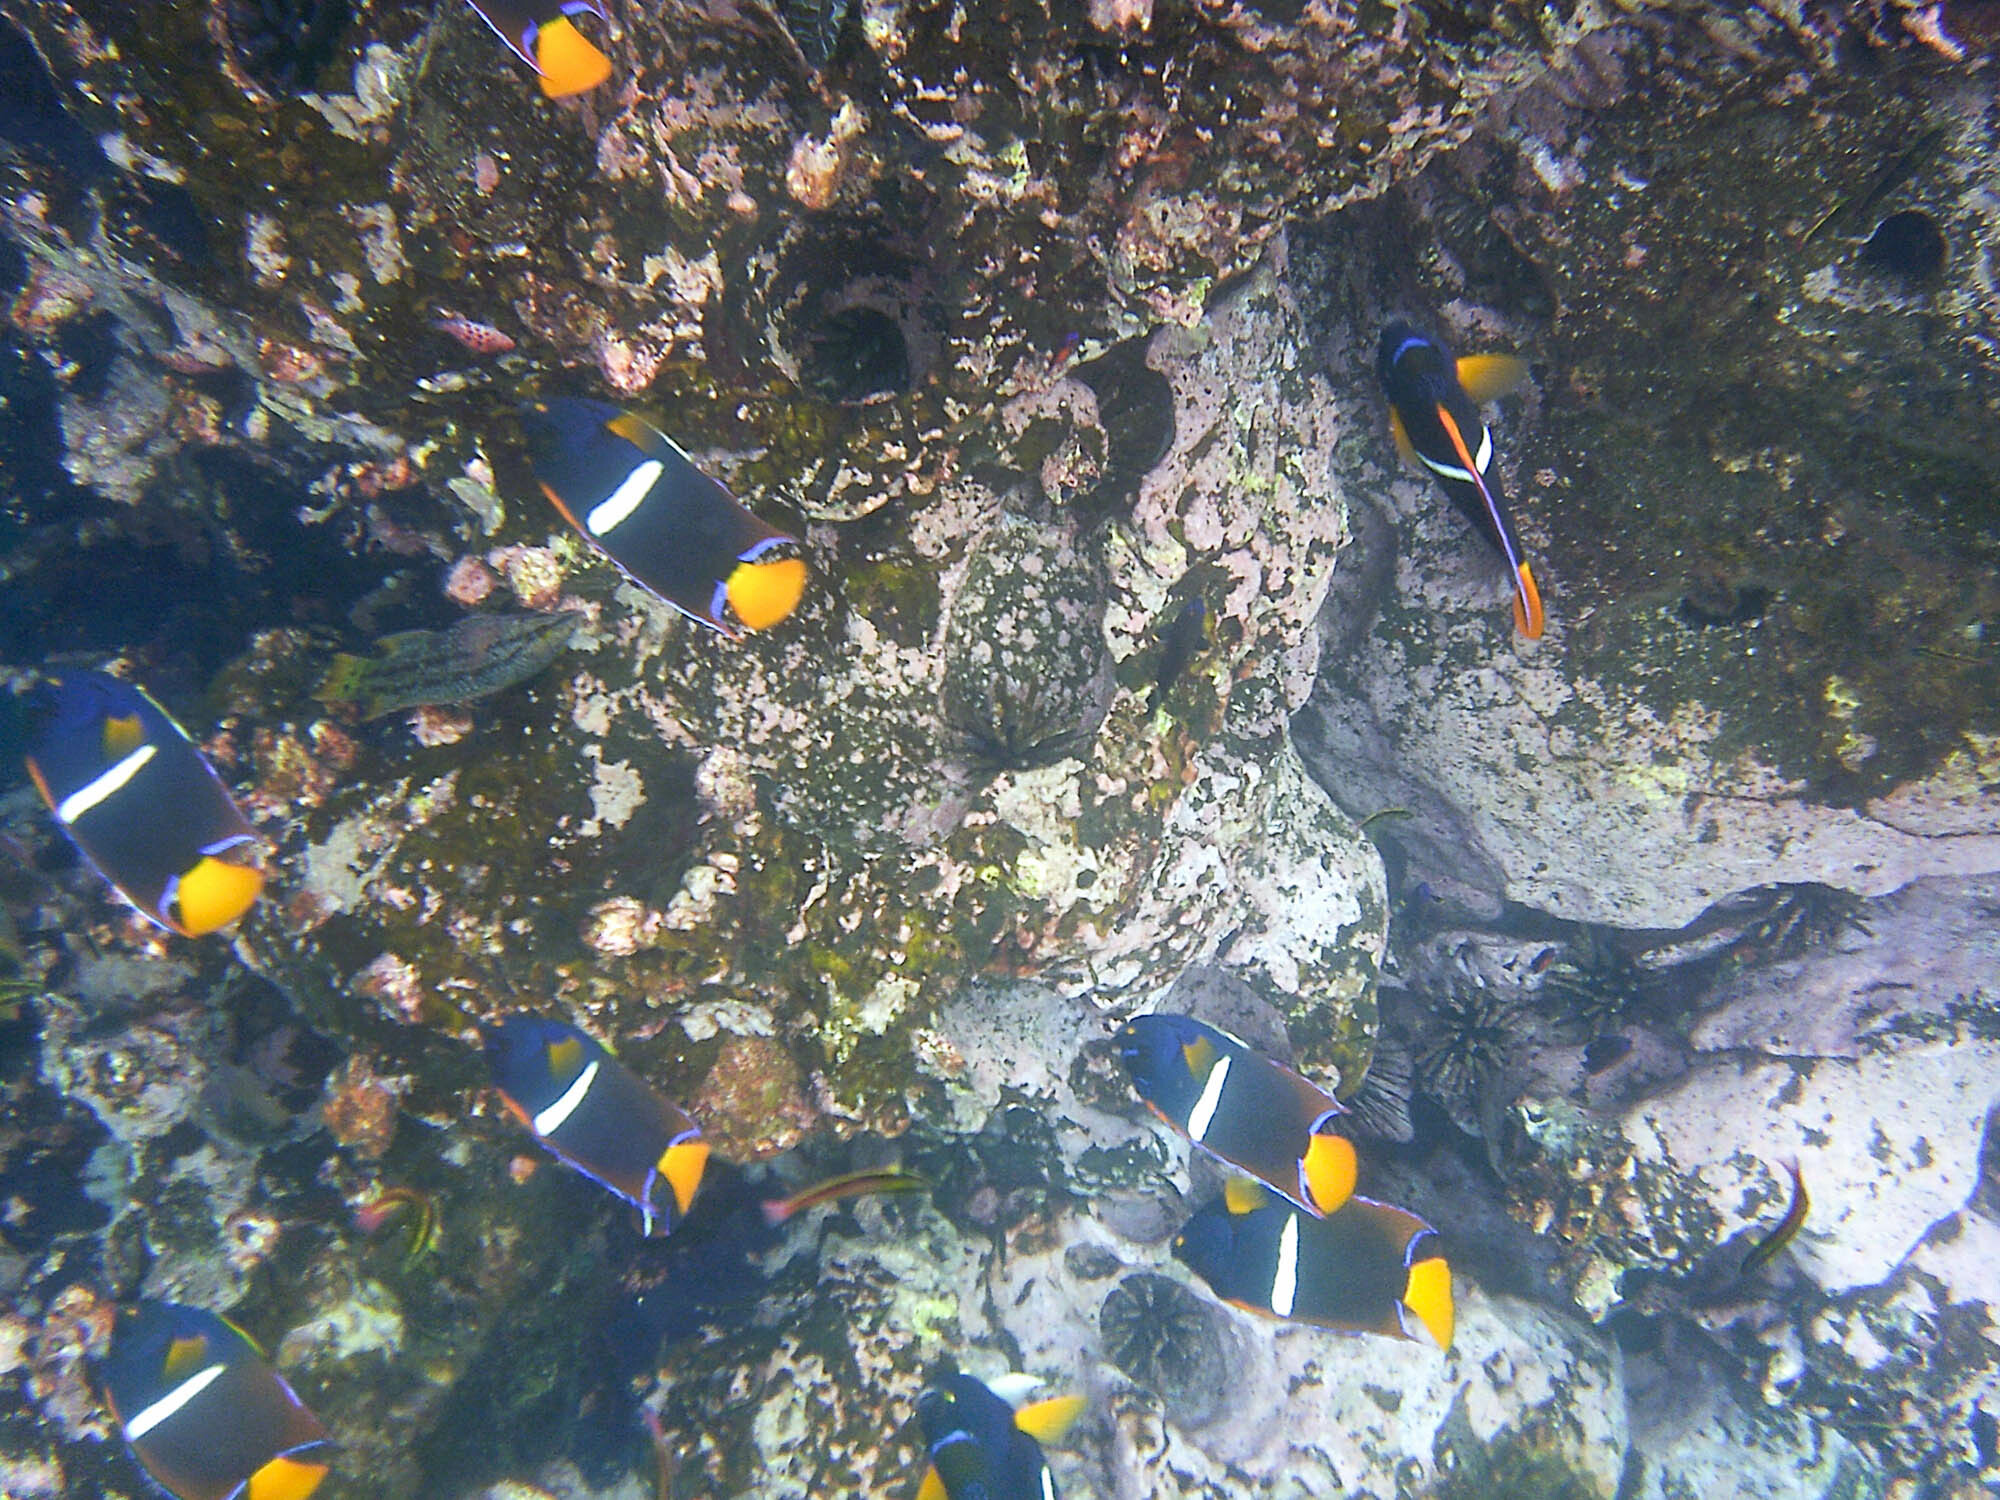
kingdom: Animalia
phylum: Chordata
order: Perciformes
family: Pomacanthidae
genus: Holacanthus
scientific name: Holacanthus passer
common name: King angelfish
